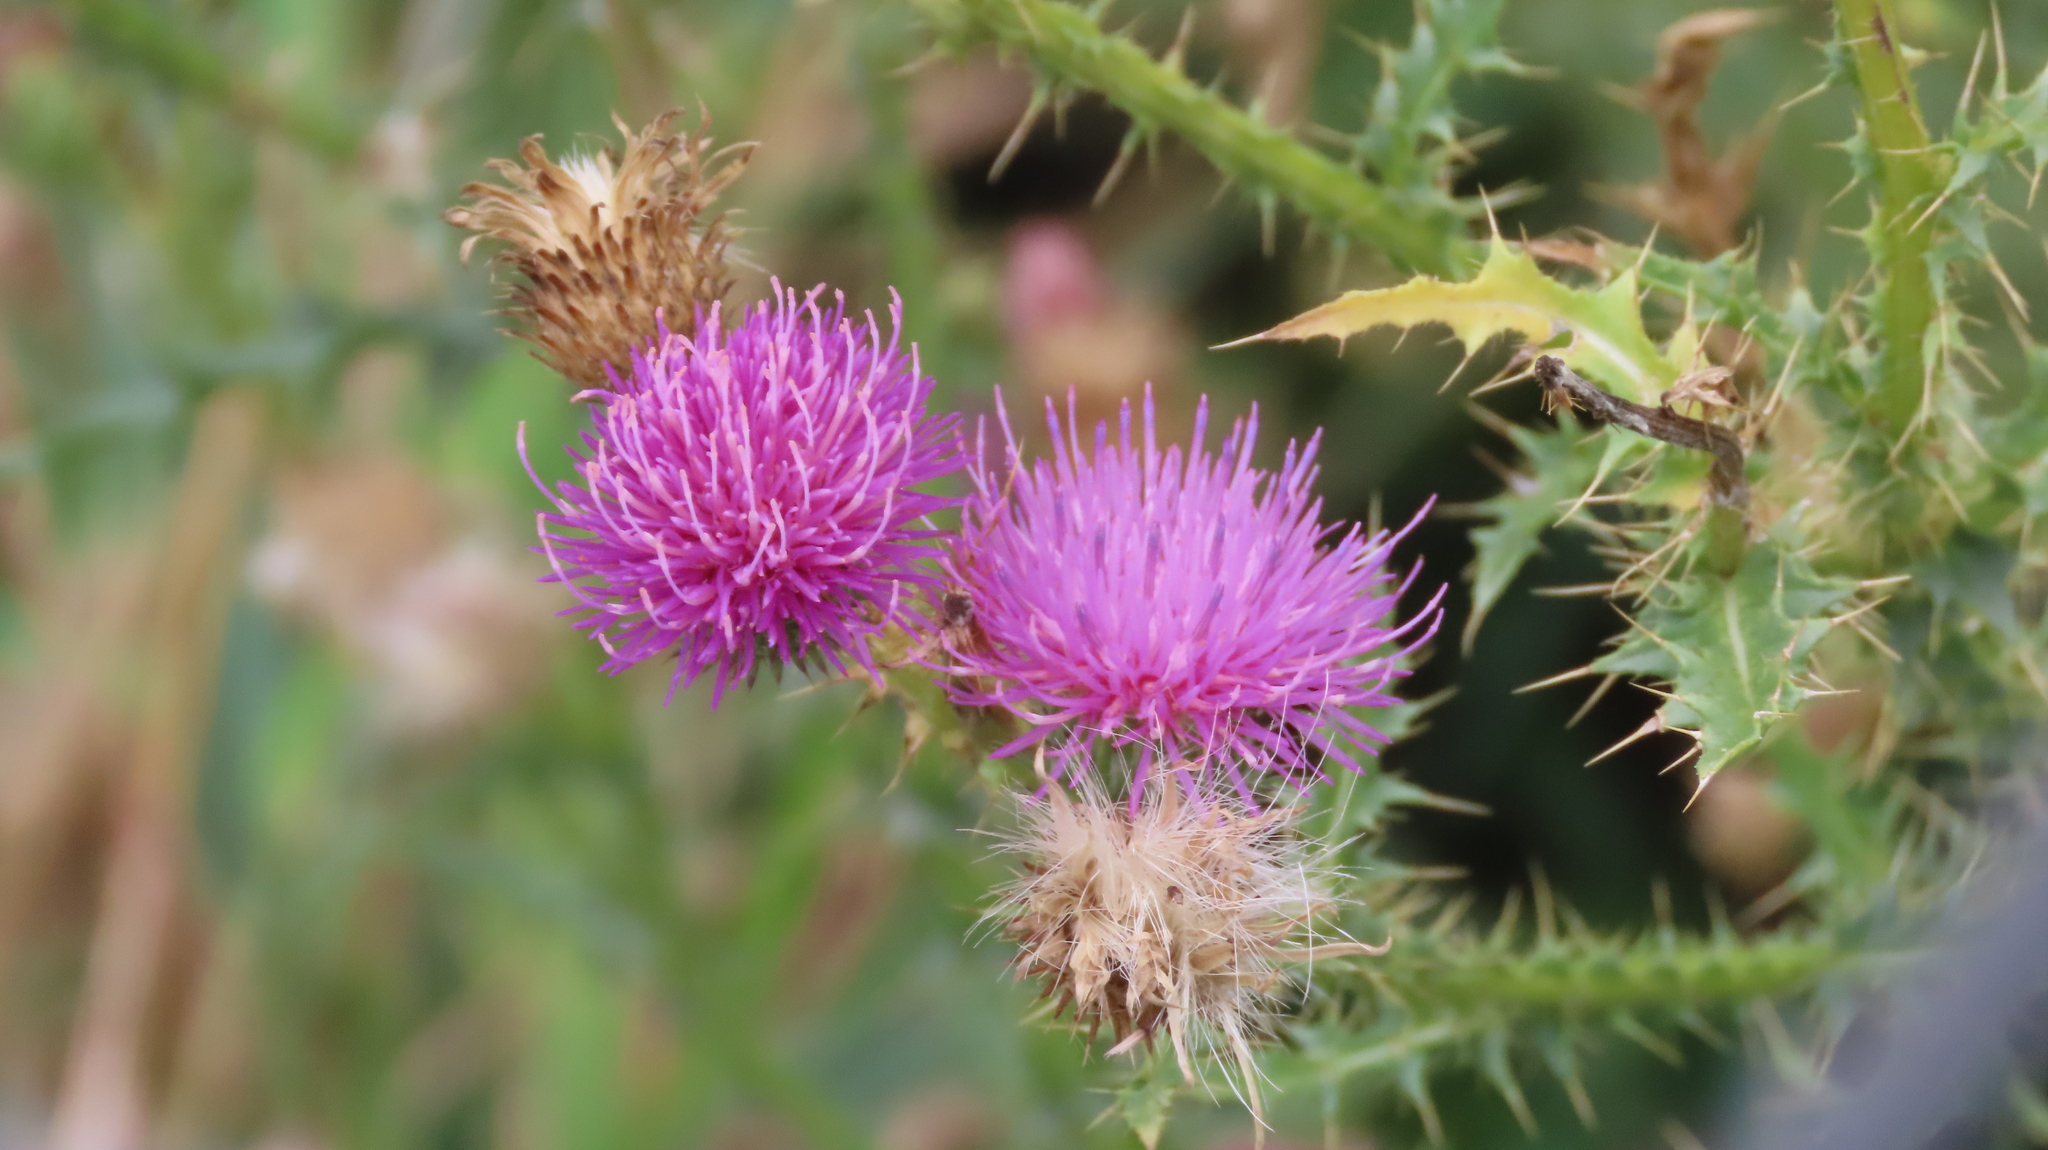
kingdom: Plantae
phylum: Tracheophyta
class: Magnoliopsida
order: Asterales
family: Asteraceae
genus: Carduus
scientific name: Carduus acanthoides
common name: Plumeless thistle
